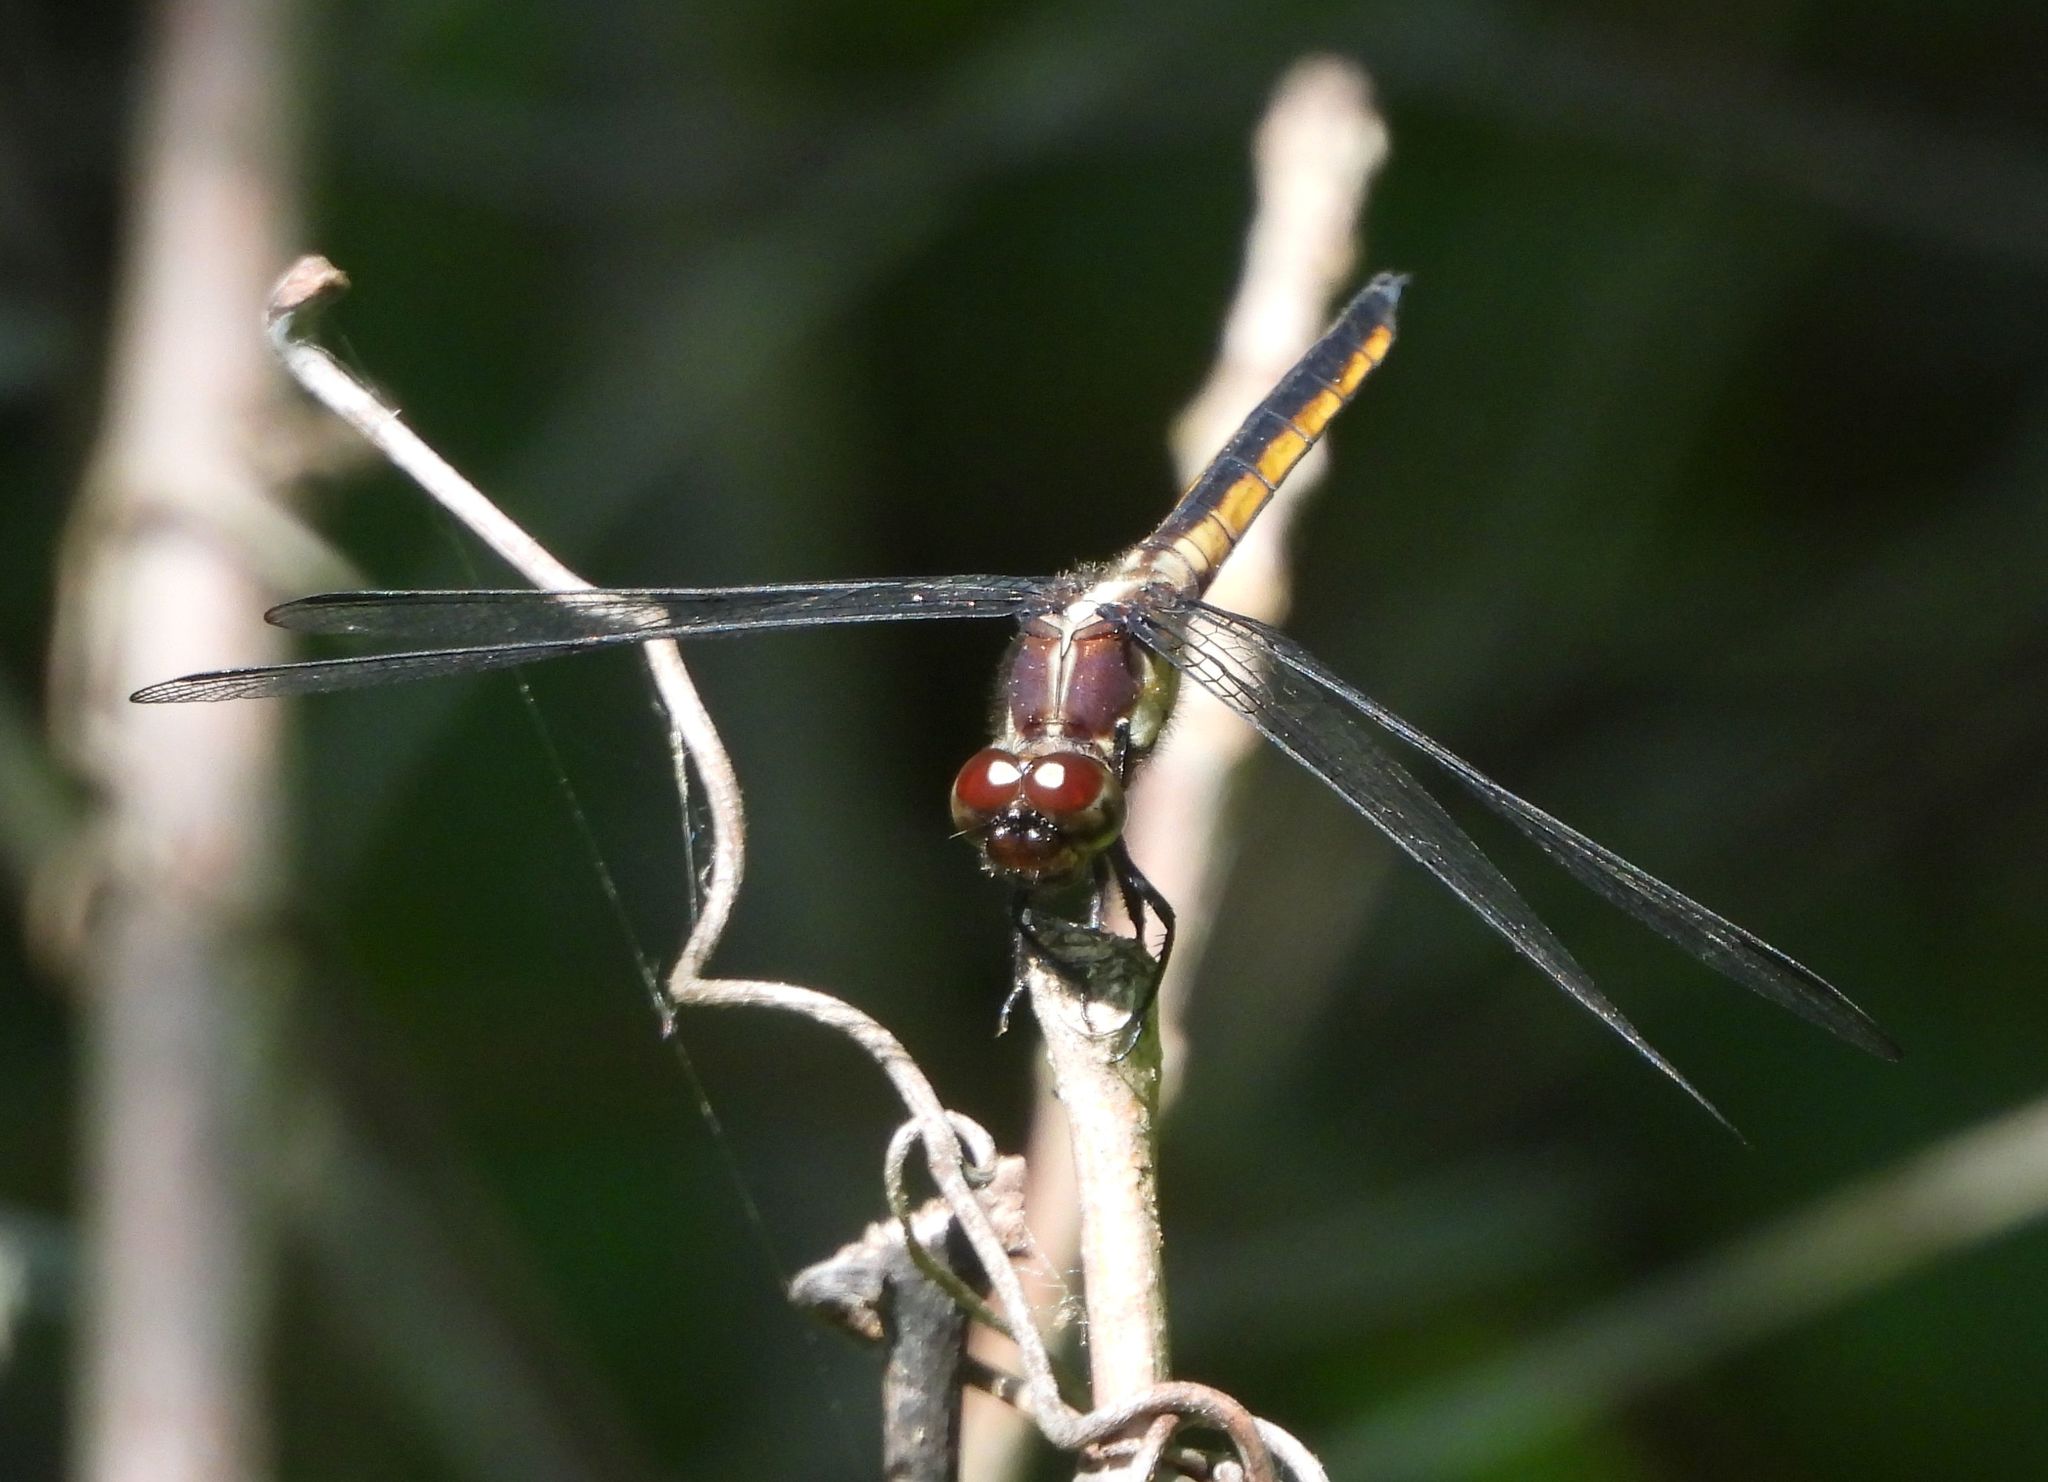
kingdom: Animalia
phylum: Arthropoda
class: Insecta
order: Odonata
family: Libellulidae
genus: Libellula
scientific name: Libellula incesta
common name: Slaty skimmer
